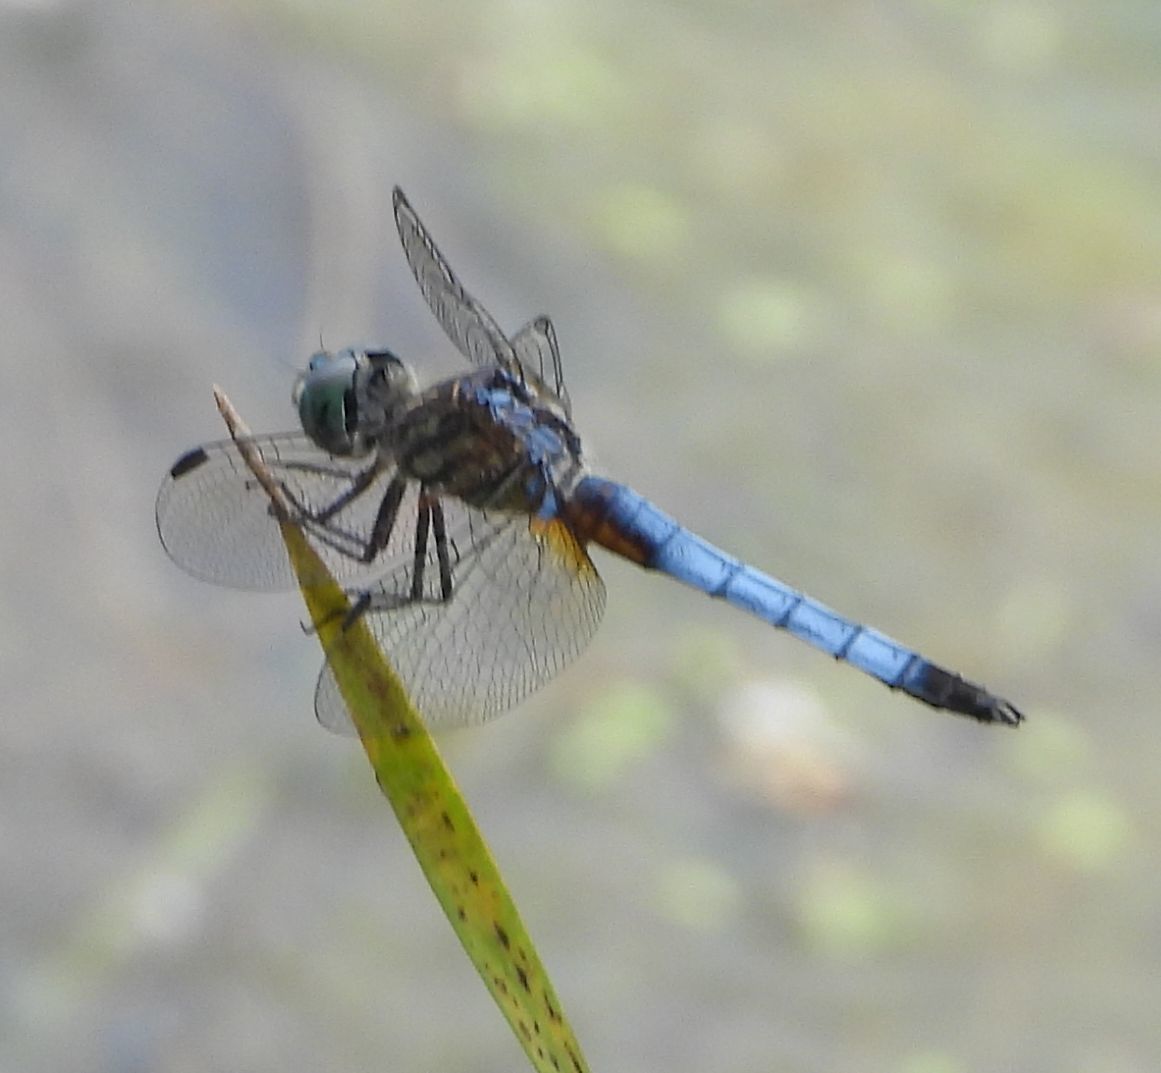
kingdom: Animalia
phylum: Arthropoda
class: Insecta
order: Odonata
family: Libellulidae
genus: Pachydiplax
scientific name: Pachydiplax longipennis
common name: Blue dasher
